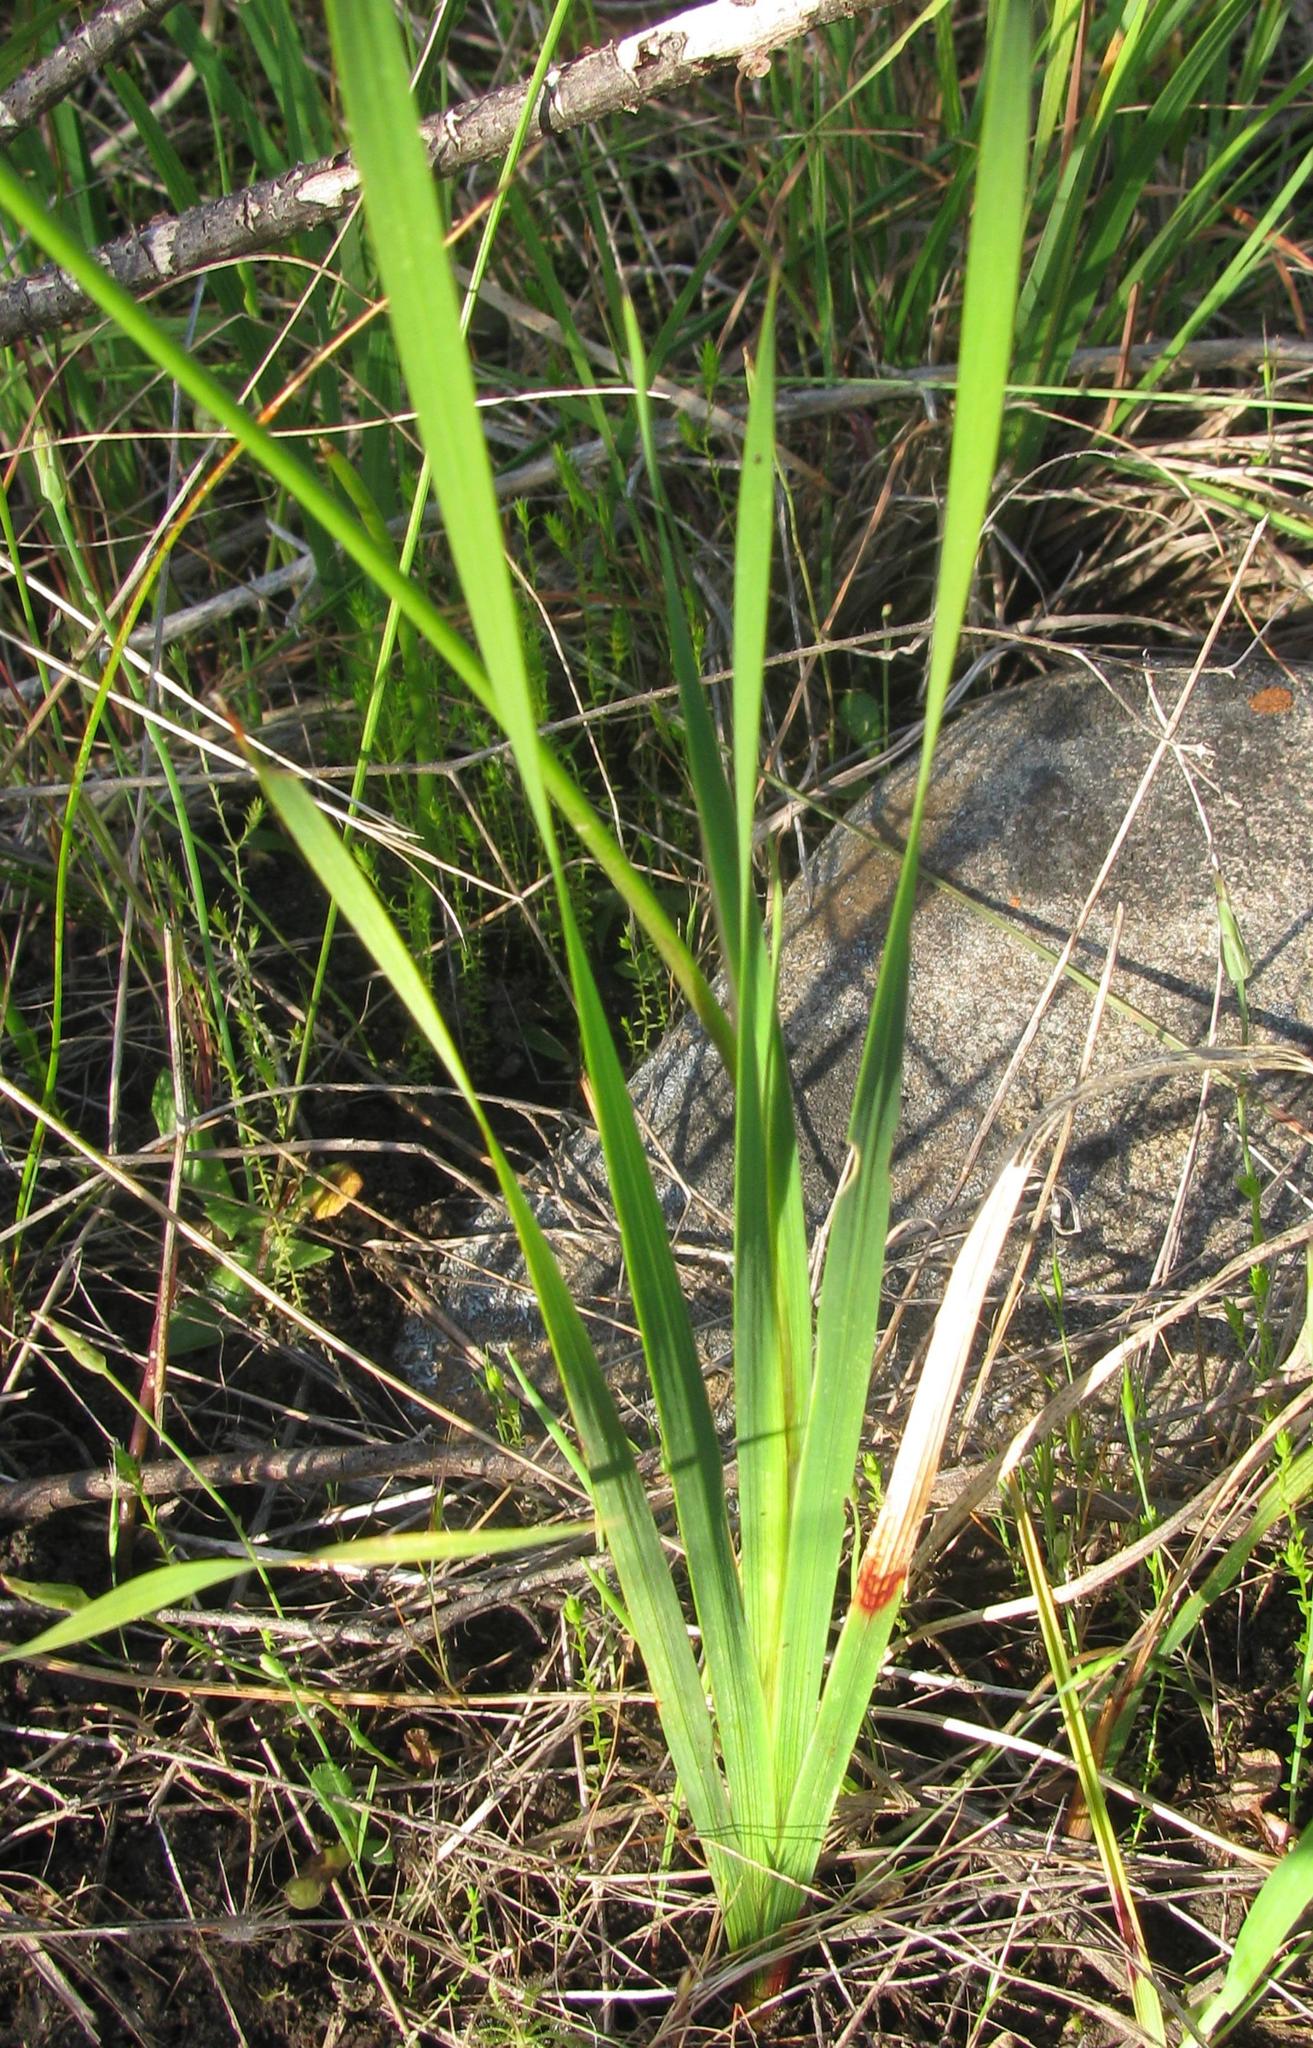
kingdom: Plantae
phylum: Tracheophyta
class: Liliopsida
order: Asparagales
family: Iridaceae
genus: Ixia
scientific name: Ixia campanulata
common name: Red corn-lily
